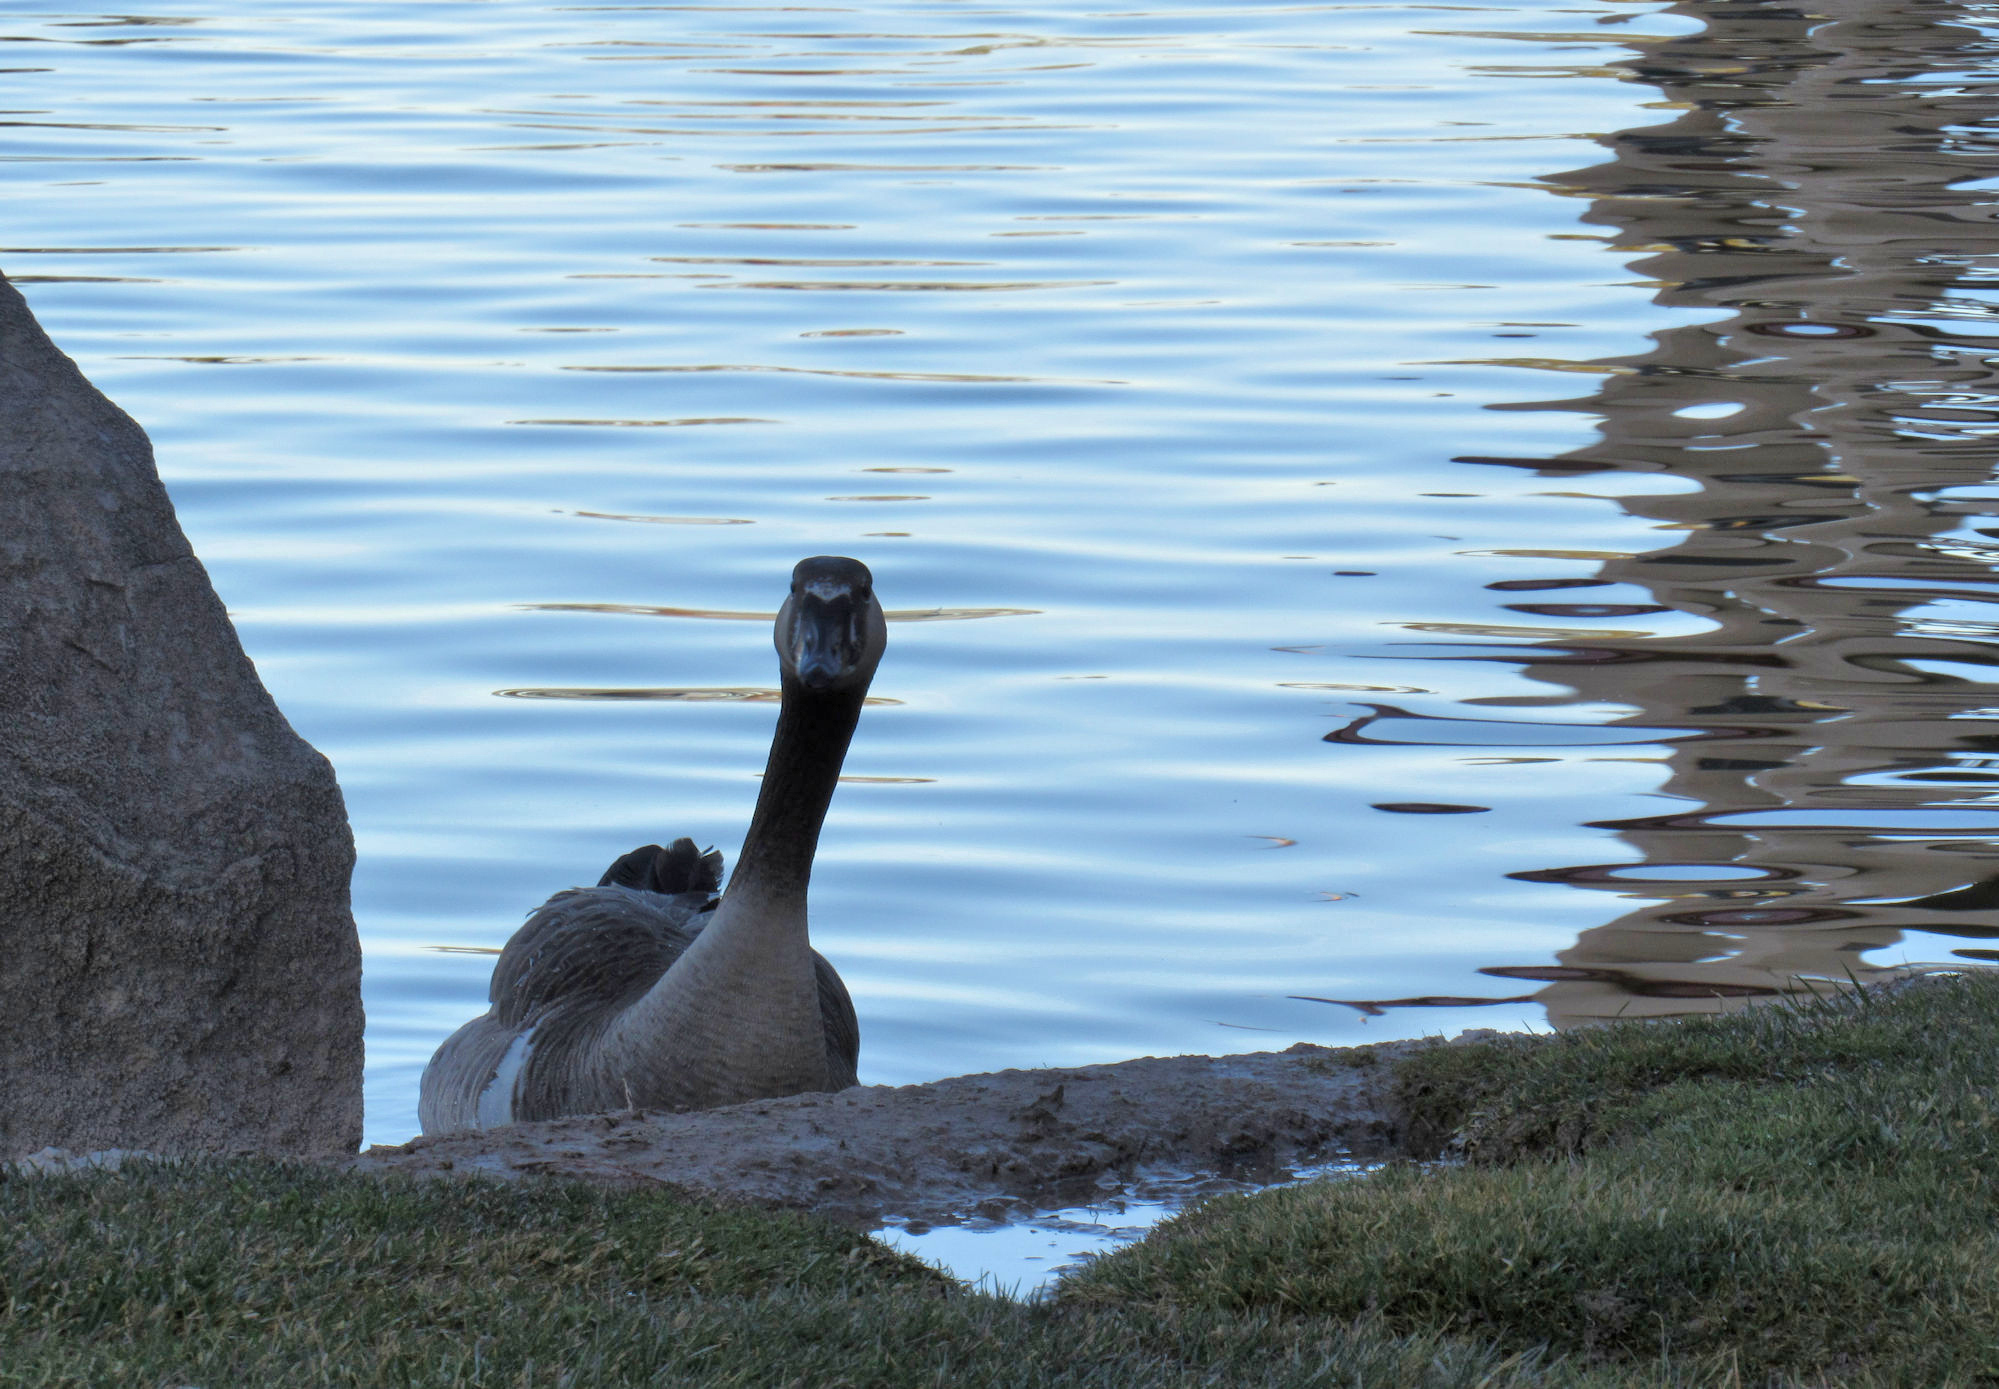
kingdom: Animalia
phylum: Chordata
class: Aves
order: Anseriformes
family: Anatidae
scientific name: Anatidae
